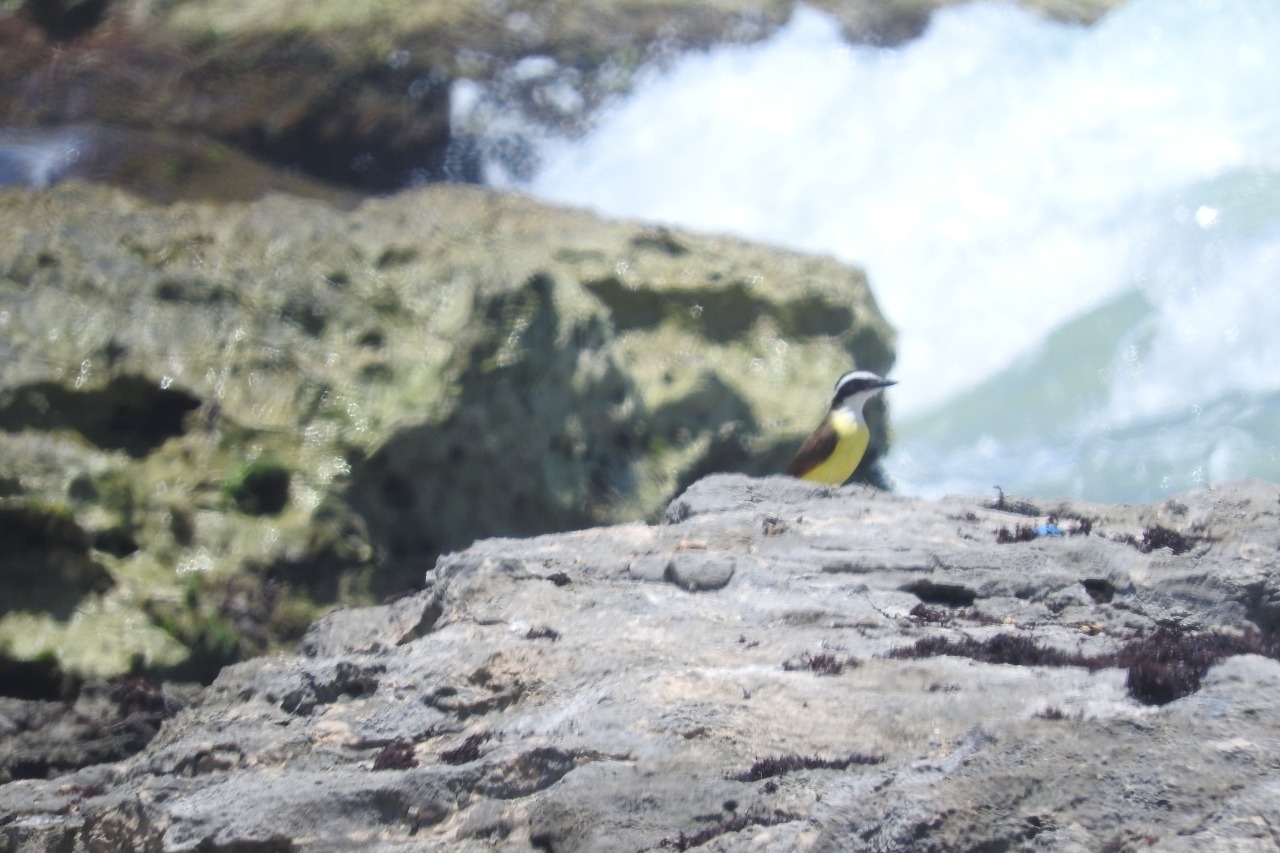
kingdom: Animalia
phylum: Chordata
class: Aves
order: Passeriformes
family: Tyrannidae
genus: Myiozetetes
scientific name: Myiozetetes similis
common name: Social flycatcher
